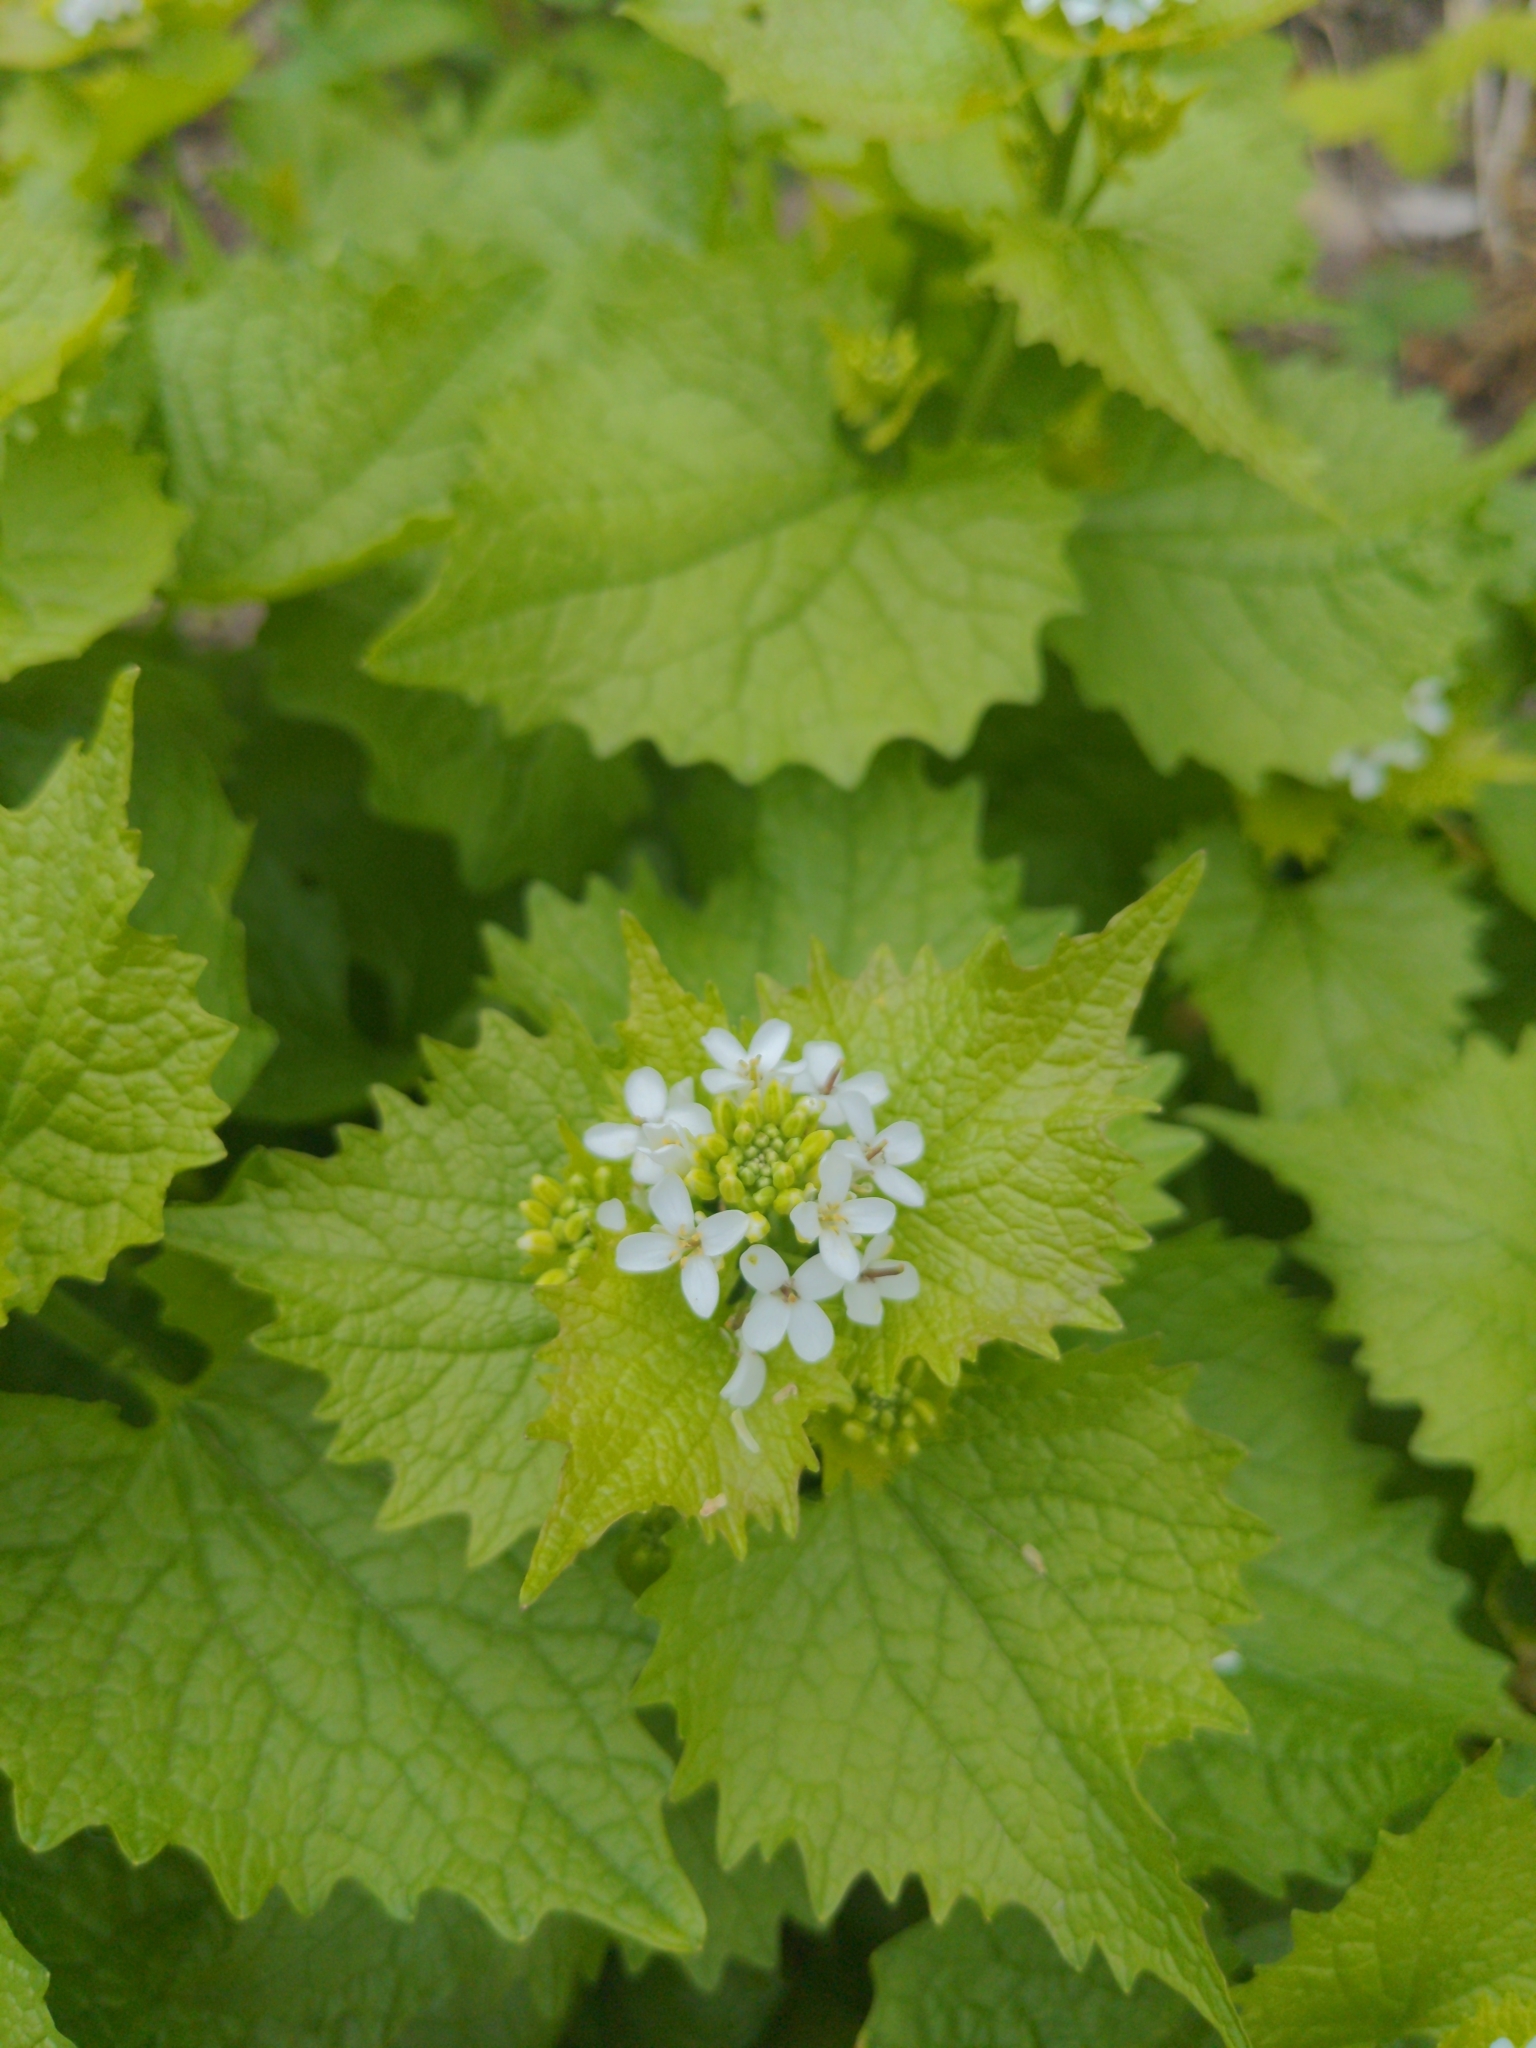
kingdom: Plantae
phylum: Tracheophyta
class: Magnoliopsida
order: Brassicales
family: Brassicaceae
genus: Alliaria
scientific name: Alliaria petiolata
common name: Garlic mustard
